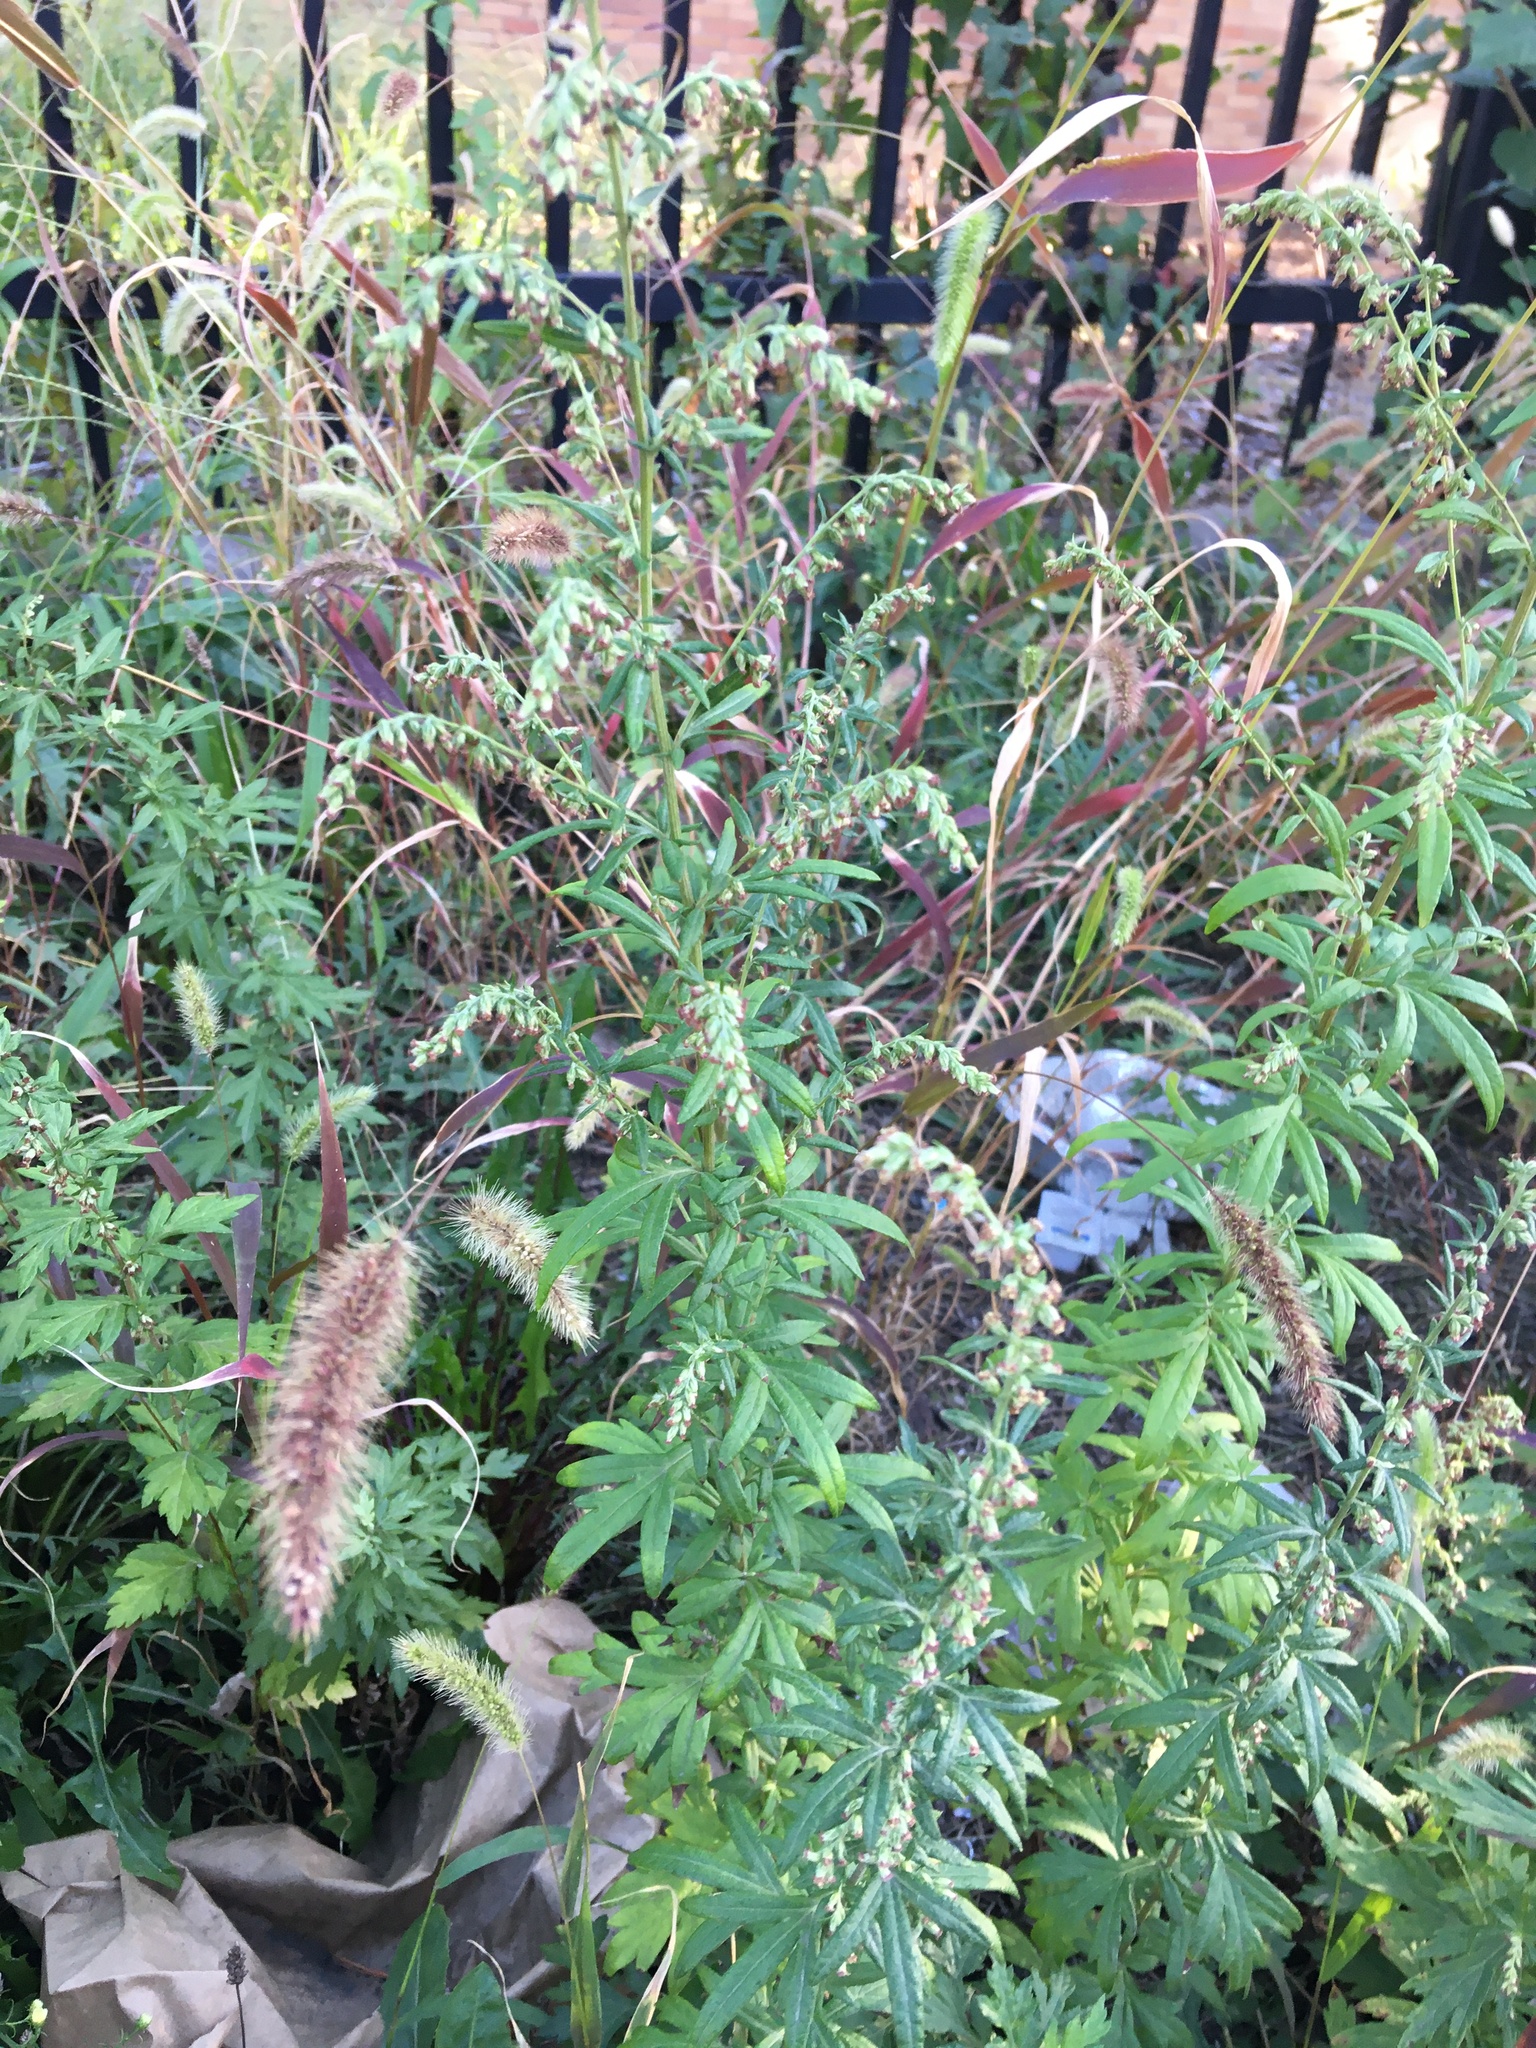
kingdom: Plantae
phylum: Tracheophyta
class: Magnoliopsida
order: Asterales
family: Asteraceae
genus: Artemisia
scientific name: Artemisia vulgaris
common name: Mugwort
